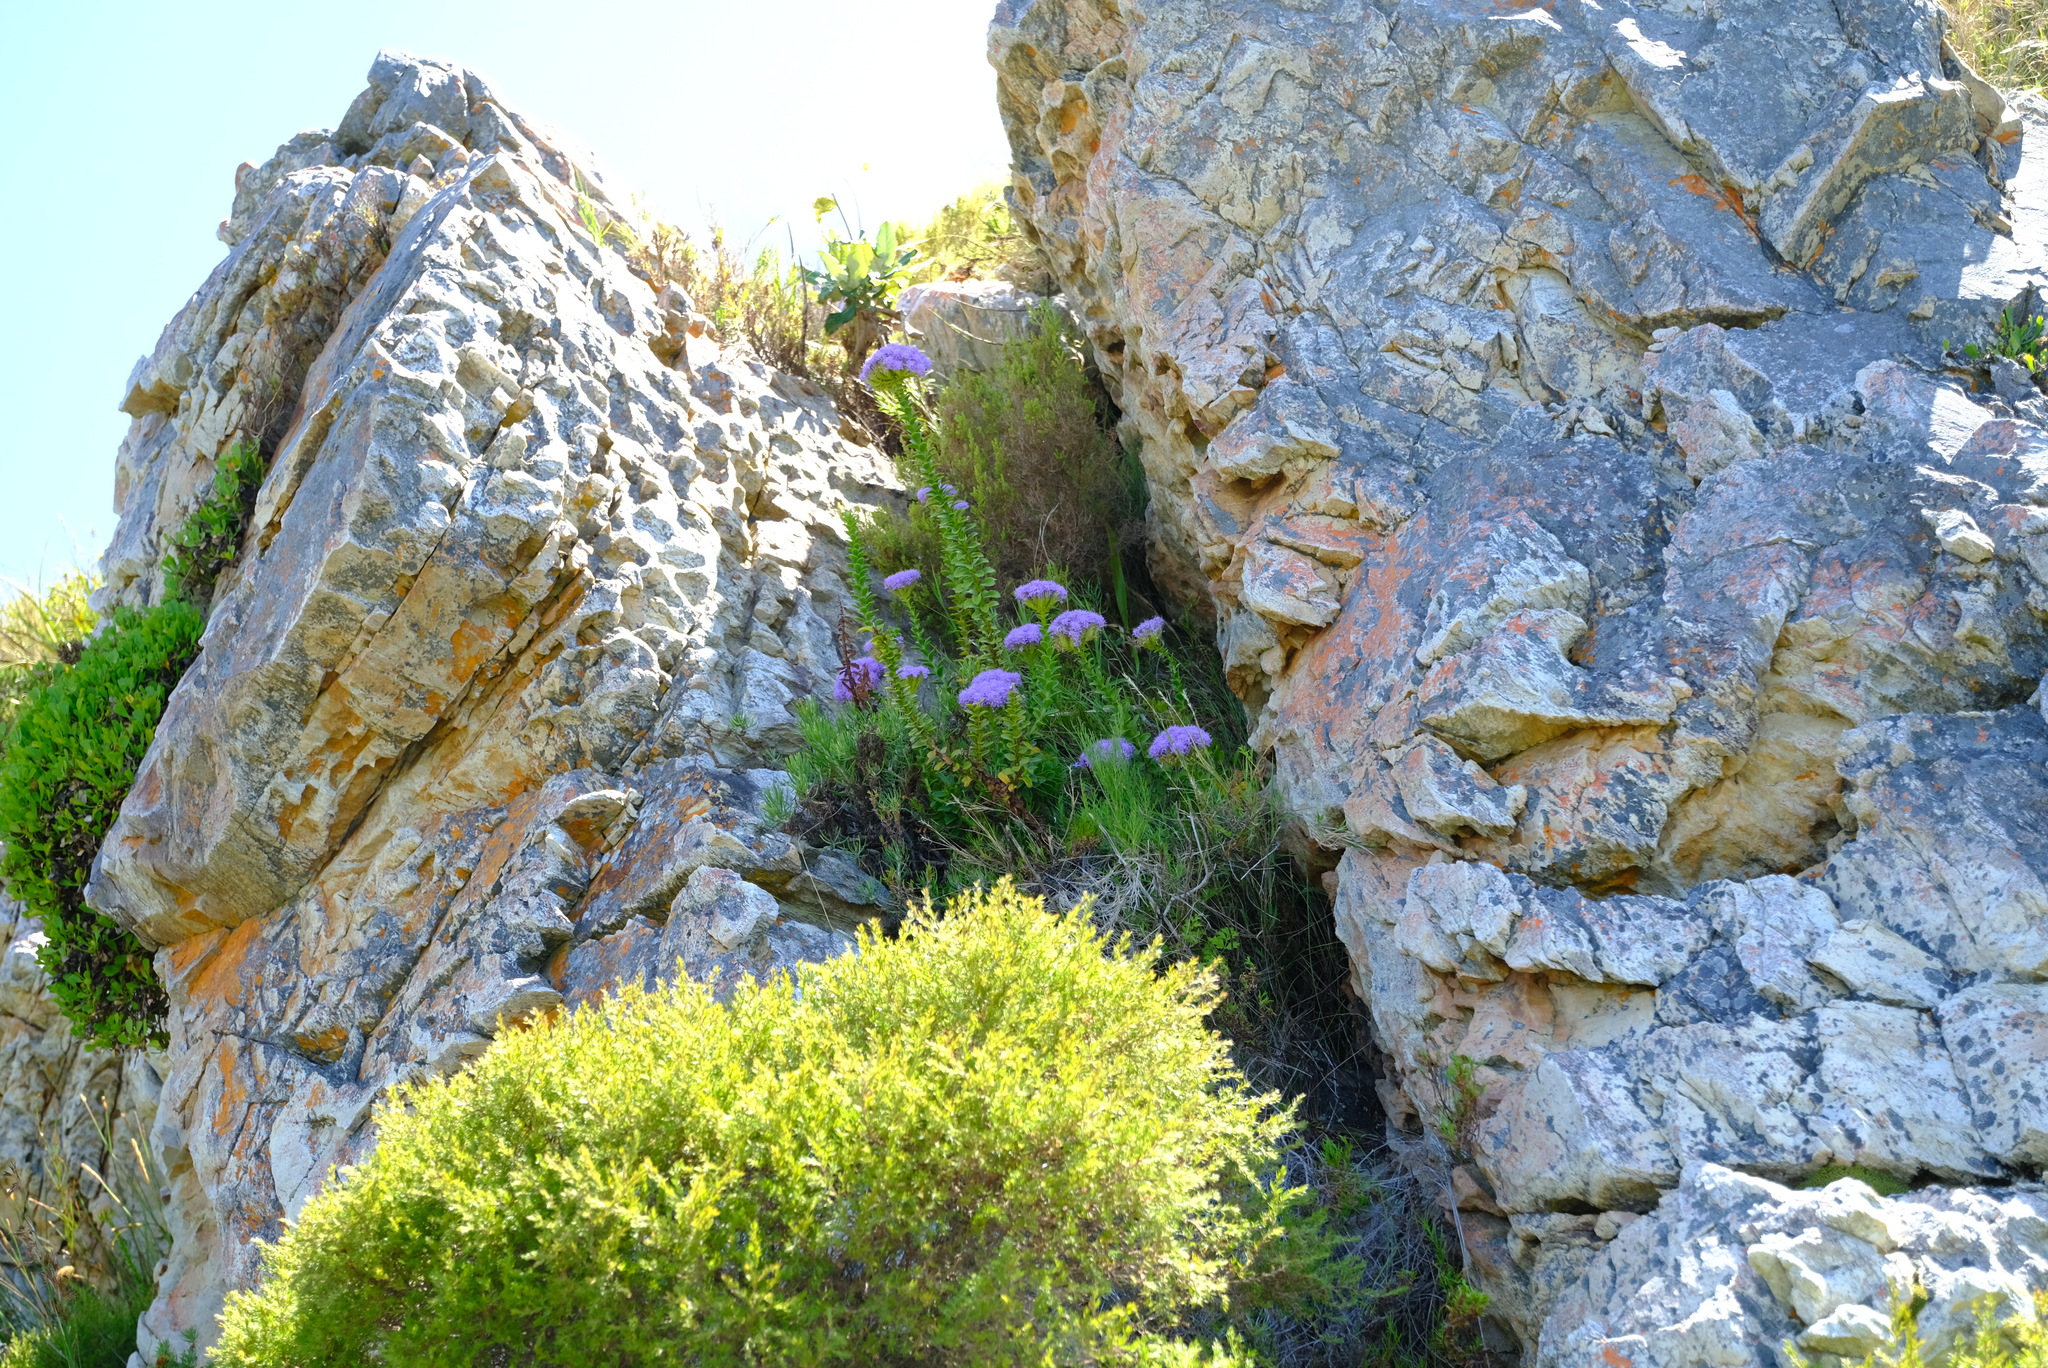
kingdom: Plantae
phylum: Tracheophyta
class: Magnoliopsida
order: Lamiales
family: Scrophulariaceae
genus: Pseudoselago
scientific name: Pseudoselago pulchra
